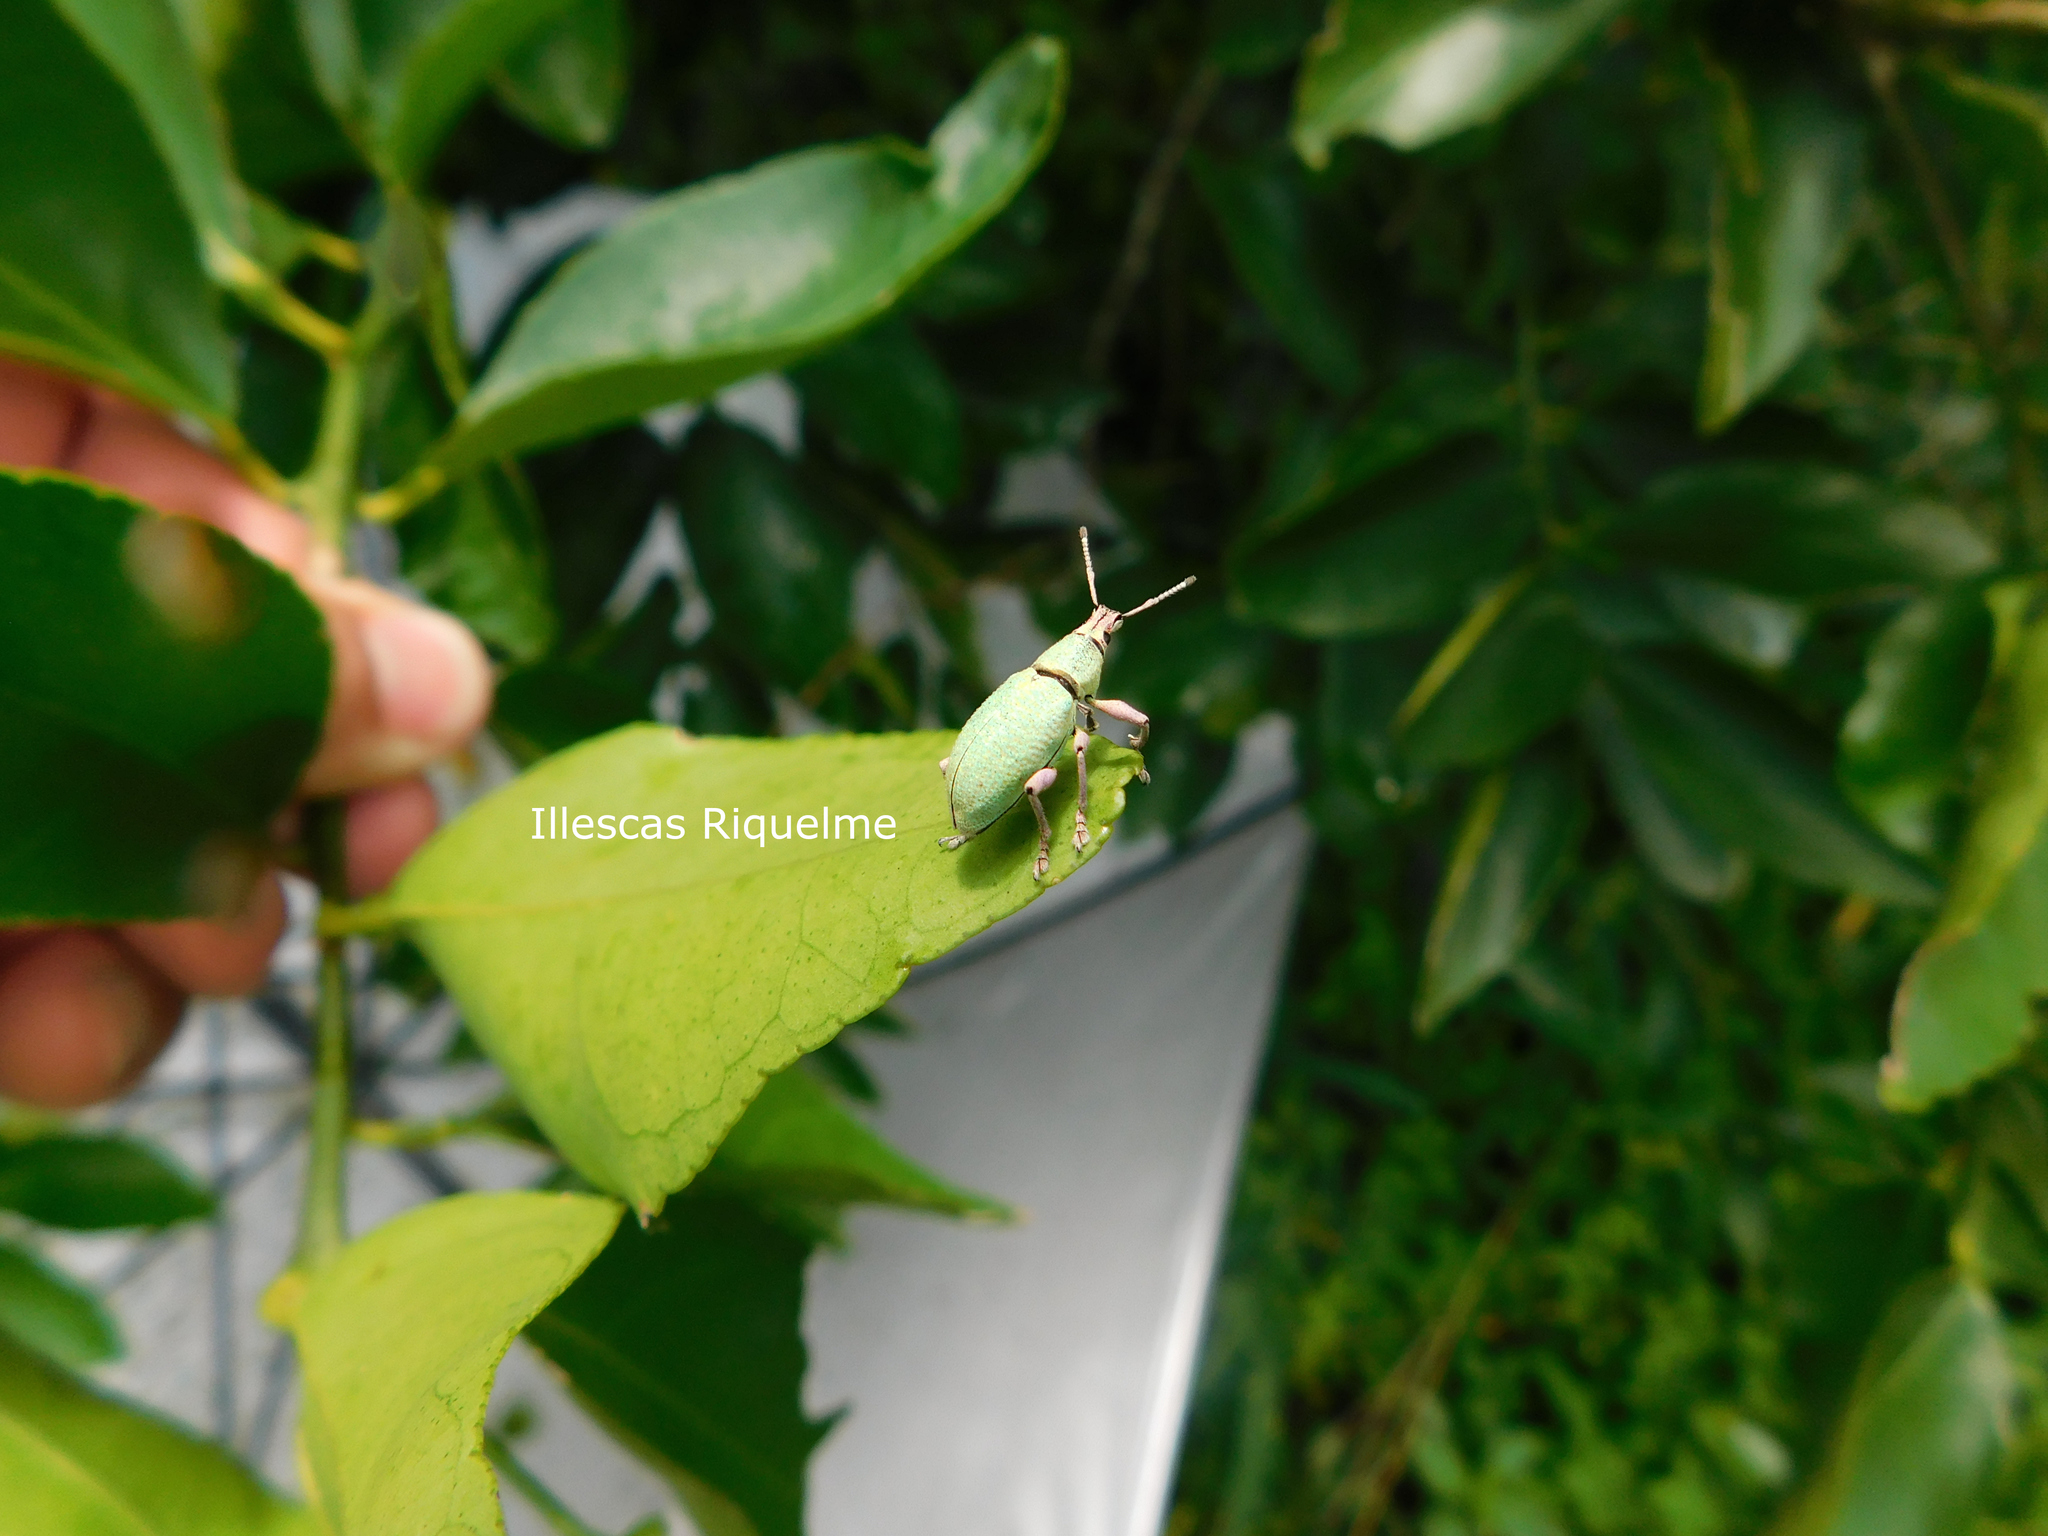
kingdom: Animalia
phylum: Arthropoda
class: Insecta
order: Coleoptera
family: Curculionidae
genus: Exophthalmus
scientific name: Exophthalmus opulentus
